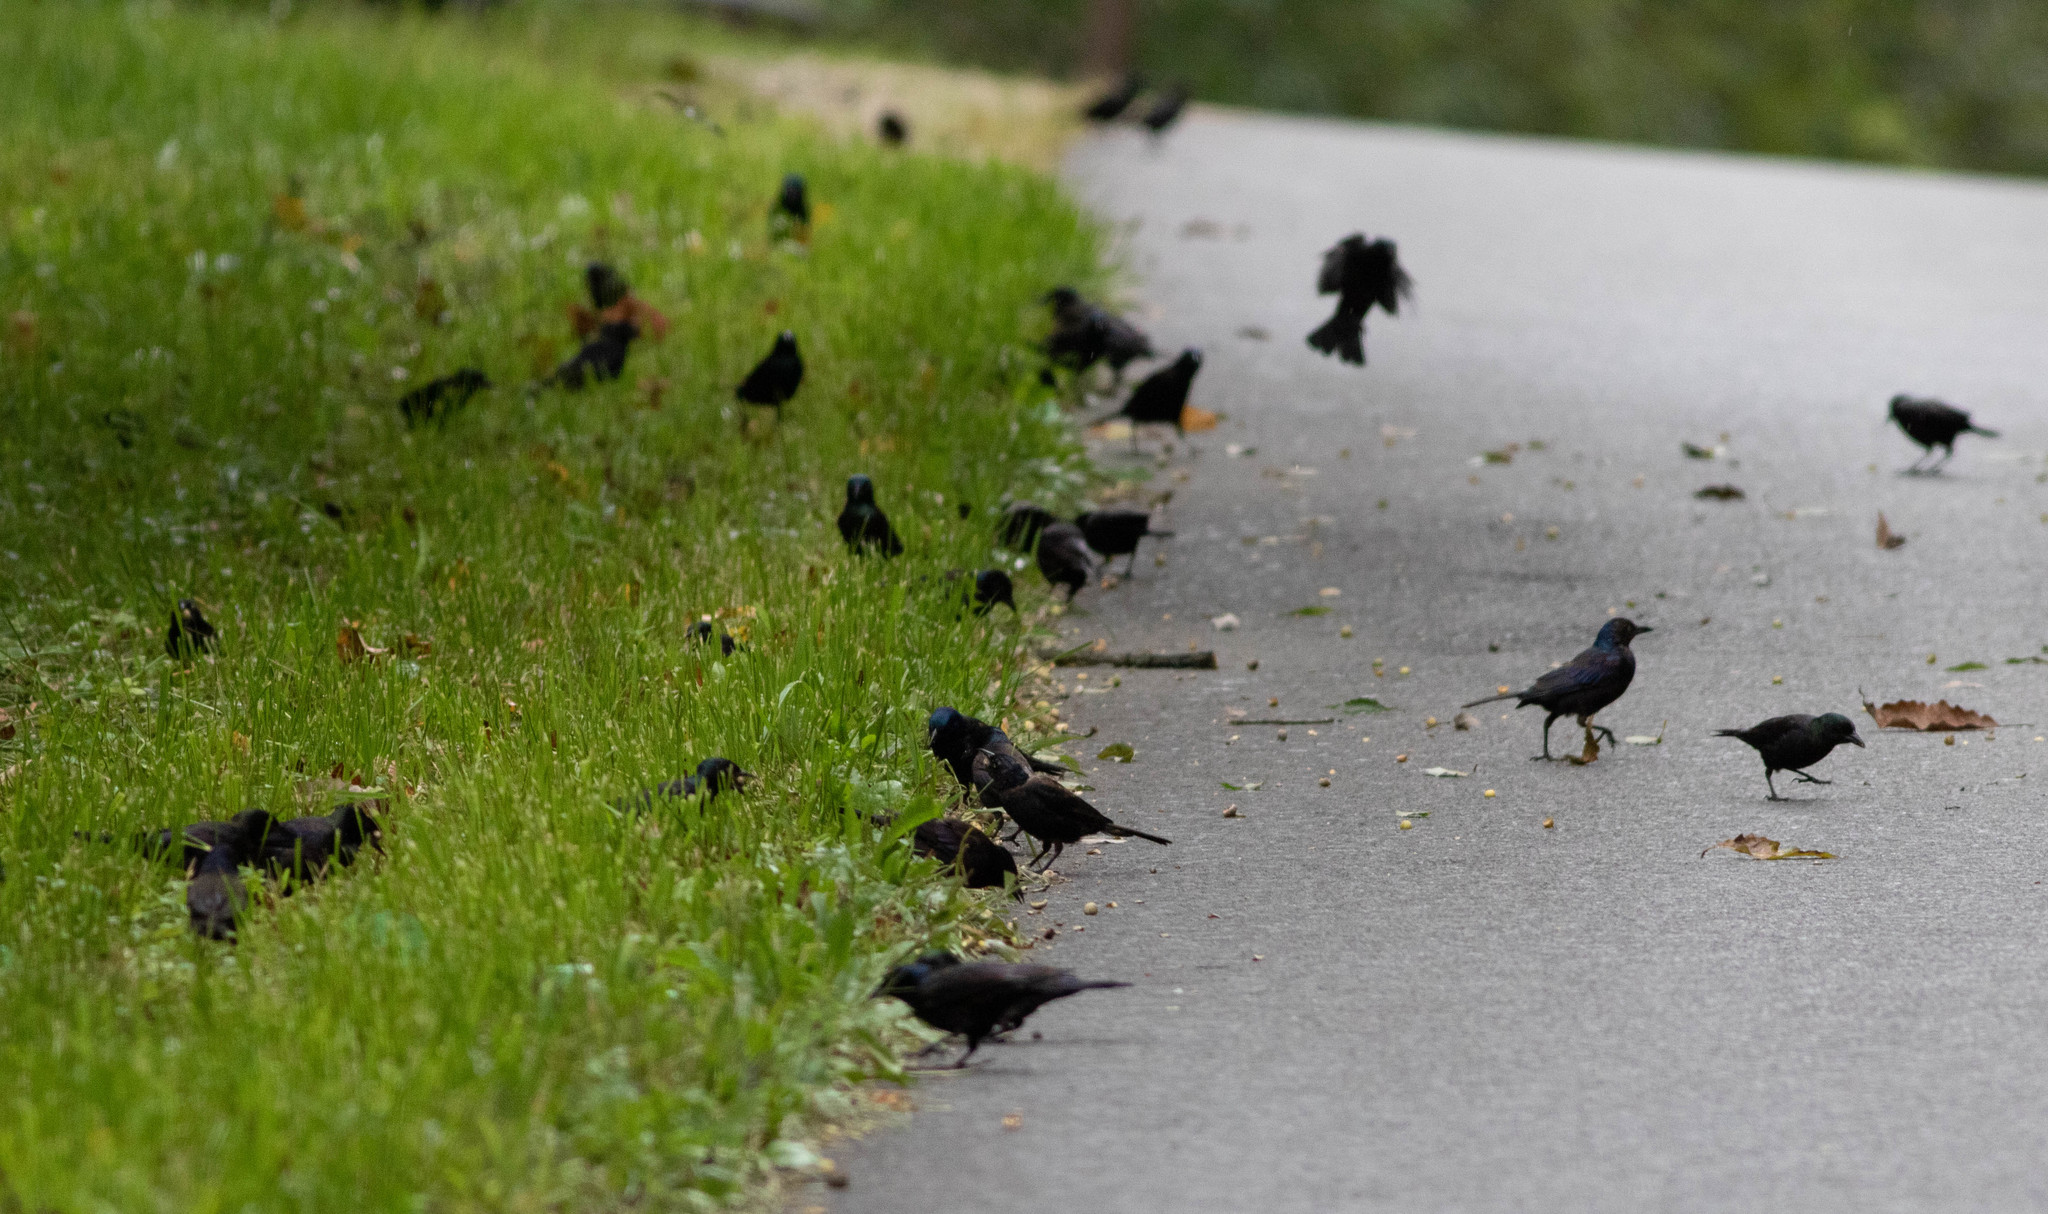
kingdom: Animalia
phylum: Chordata
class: Aves
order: Passeriformes
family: Icteridae
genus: Quiscalus
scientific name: Quiscalus quiscula
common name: Common grackle
